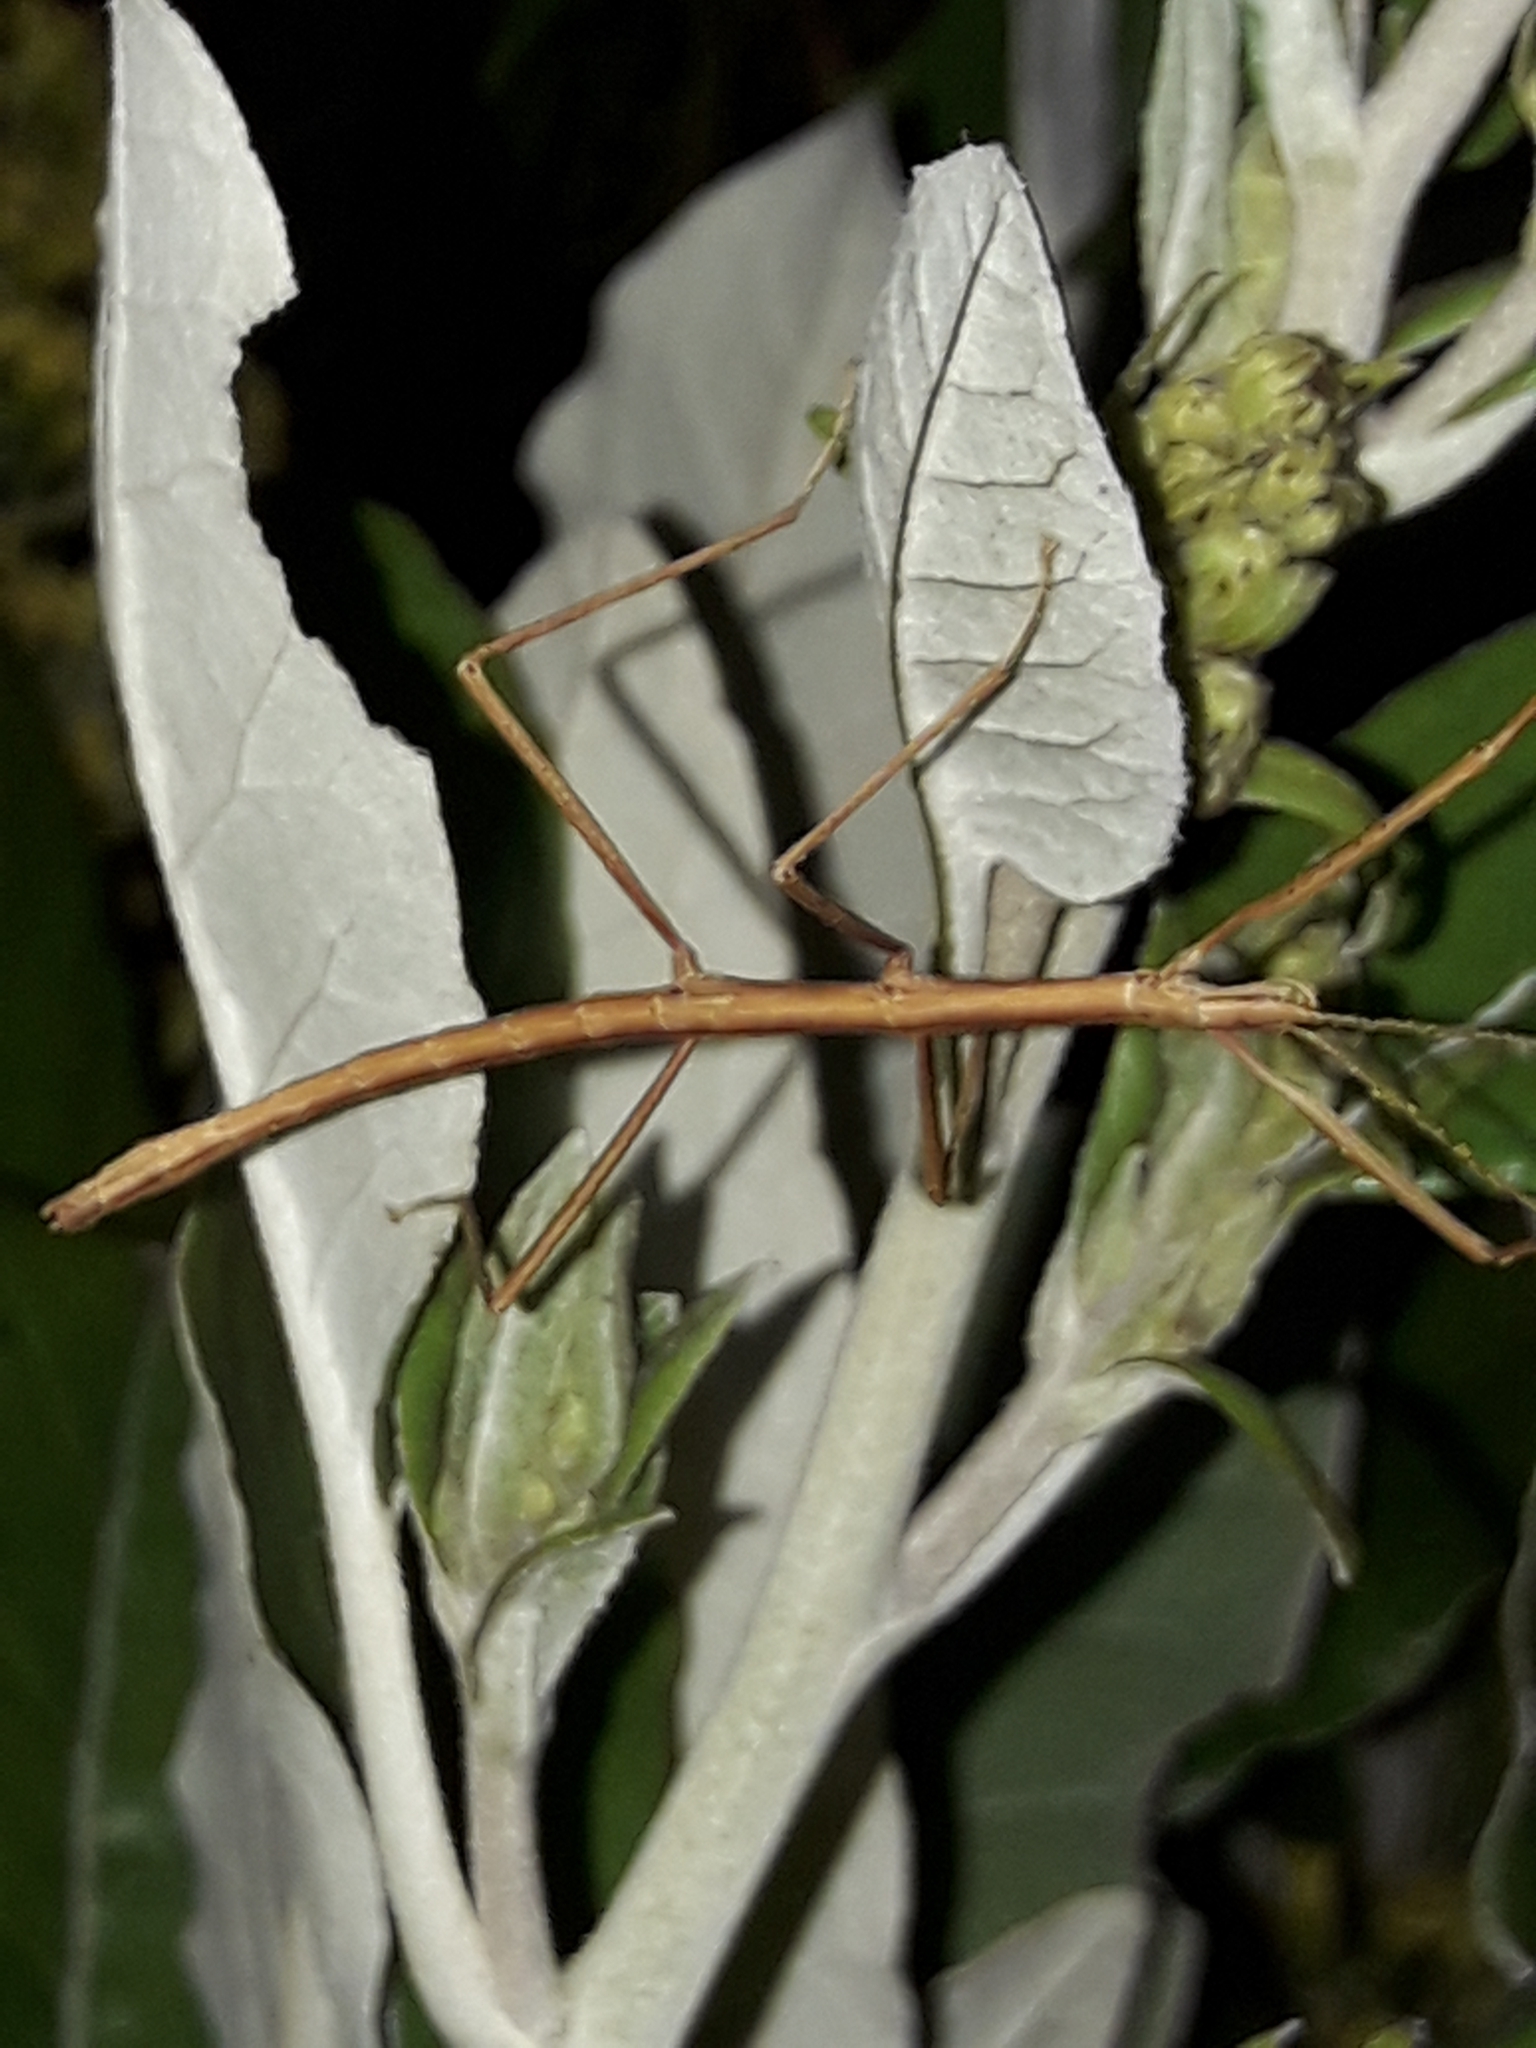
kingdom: Animalia
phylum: Arthropoda
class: Insecta
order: Phasmida
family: Phasmatidae
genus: Tectarchus
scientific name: Tectarchus huttoni
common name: The common ridge-backed stick insect
